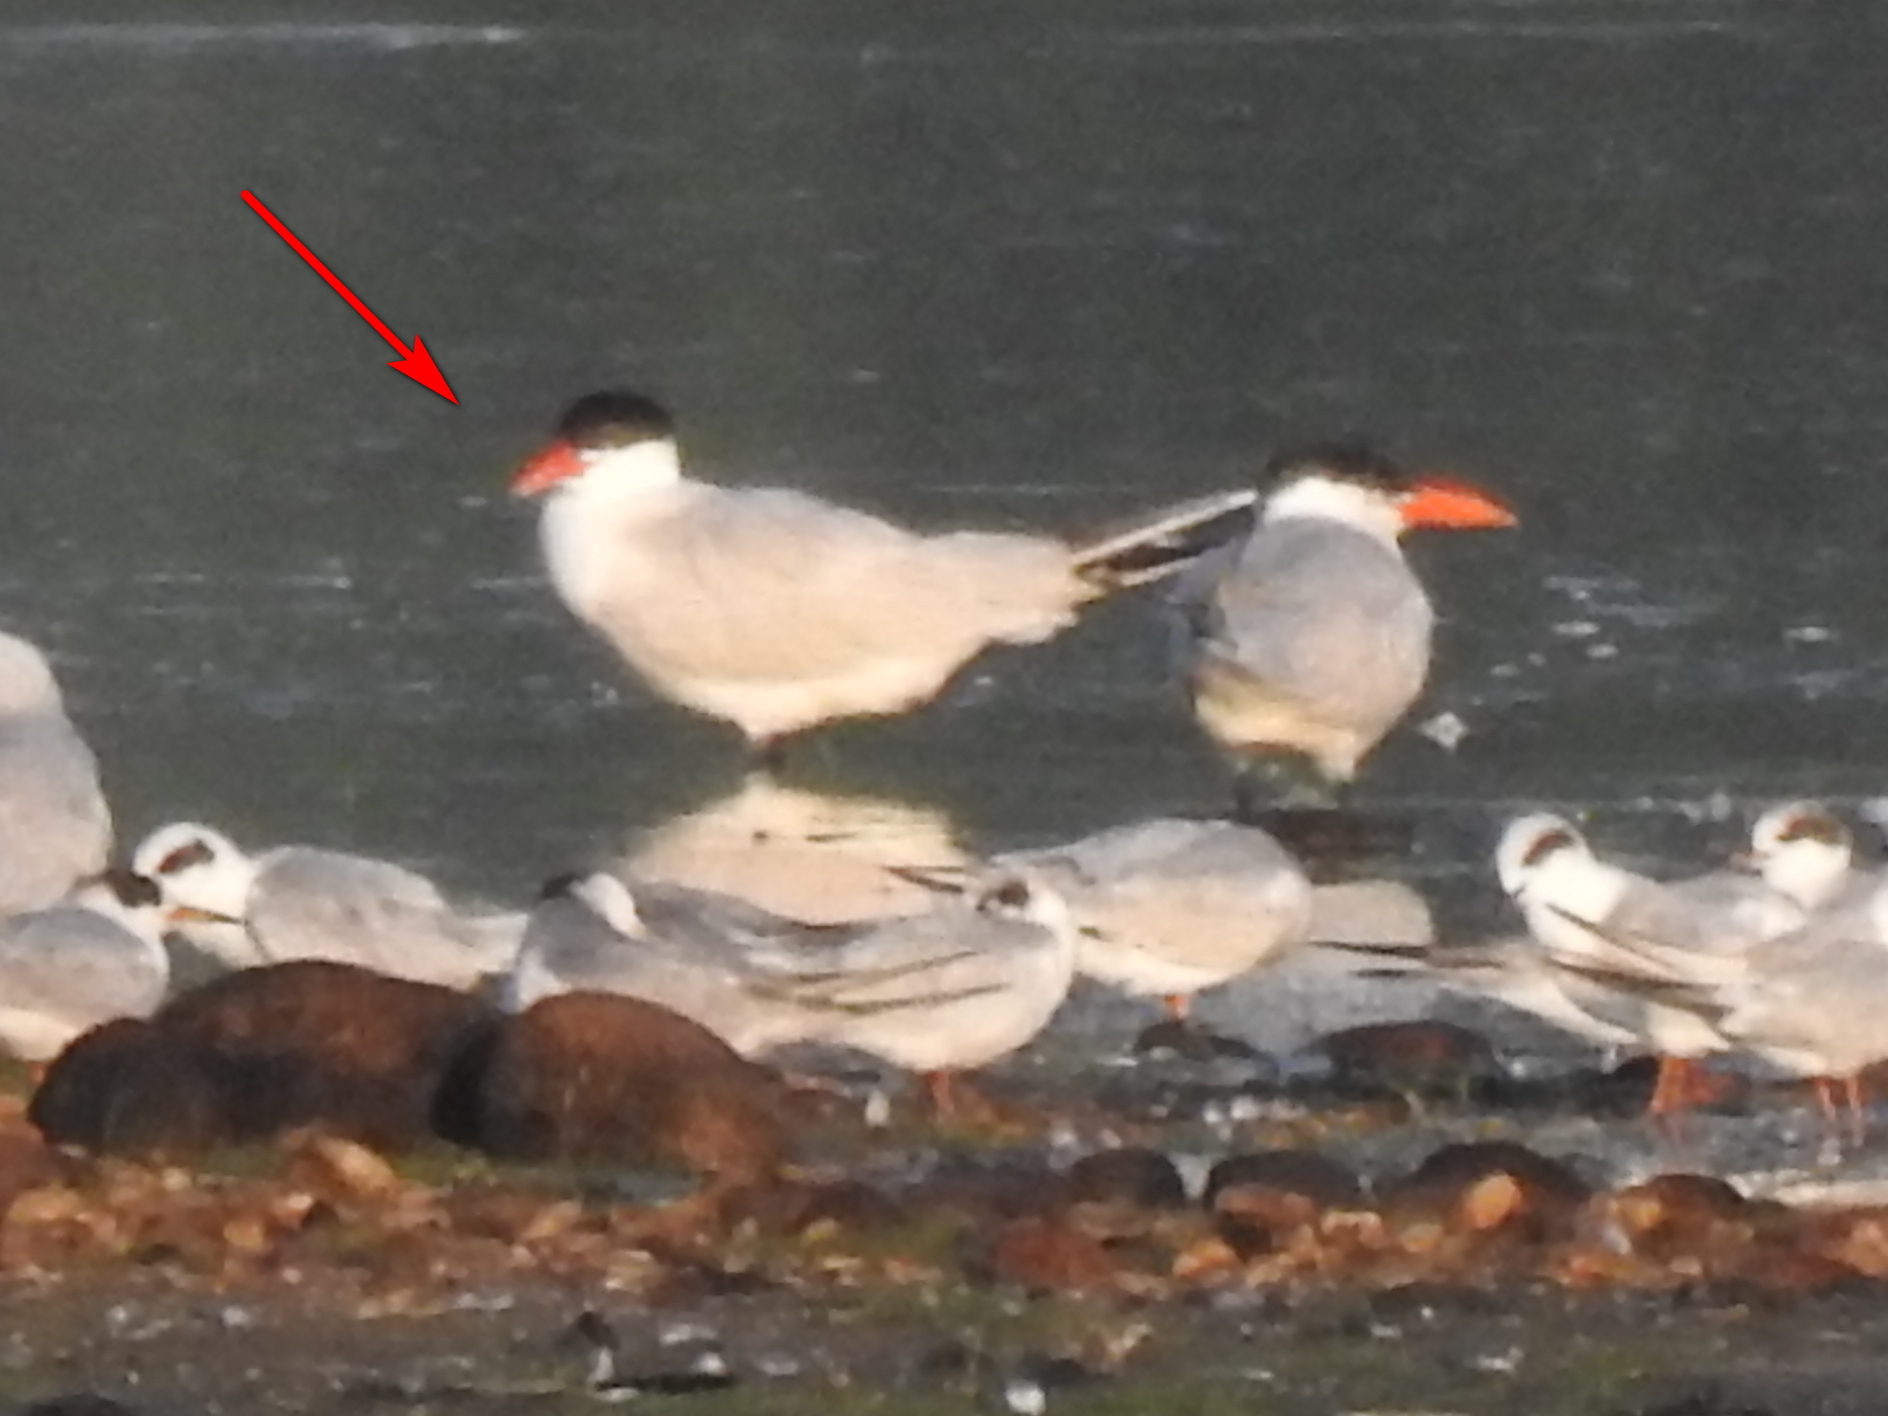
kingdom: Animalia
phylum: Chordata
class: Aves
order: Charadriiformes
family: Laridae
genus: Hydroprogne
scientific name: Hydroprogne caspia
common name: Caspian tern
